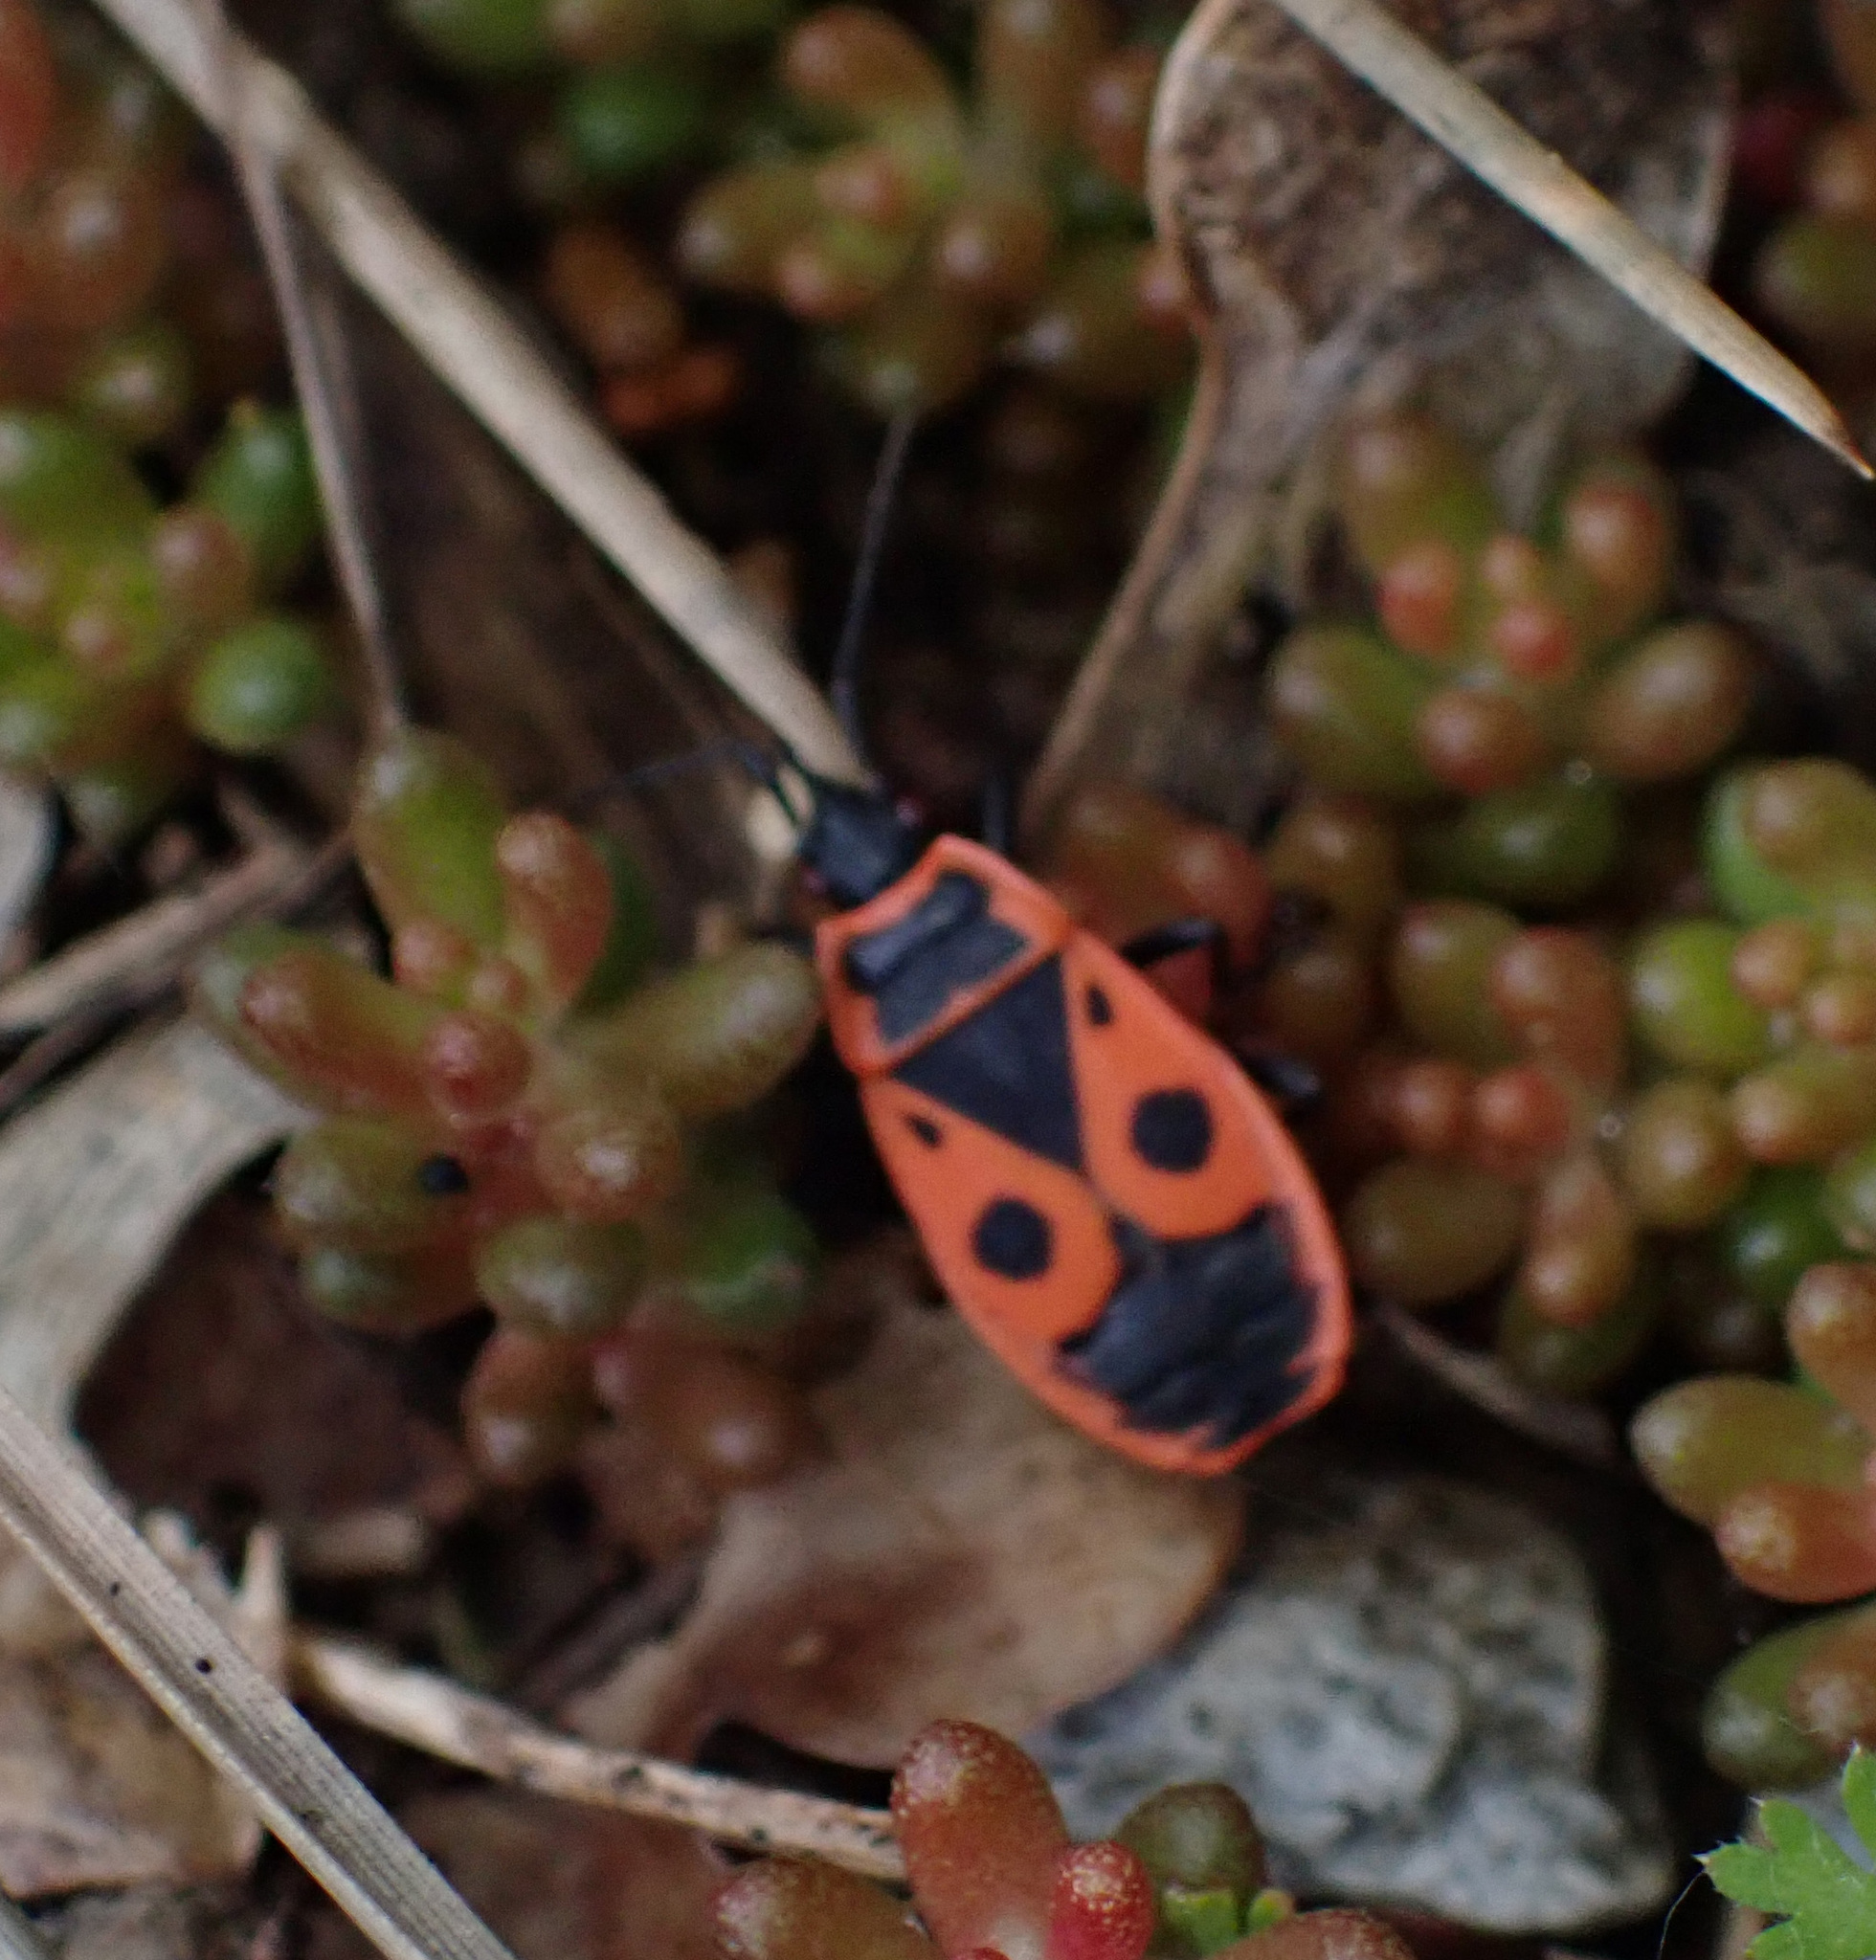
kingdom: Animalia
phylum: Arthropoda
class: Insecta
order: Hemiptera
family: Pyrrhocoridae
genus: Pyrrhocoris
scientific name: Pyrrhocoris apterus
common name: Firebug
